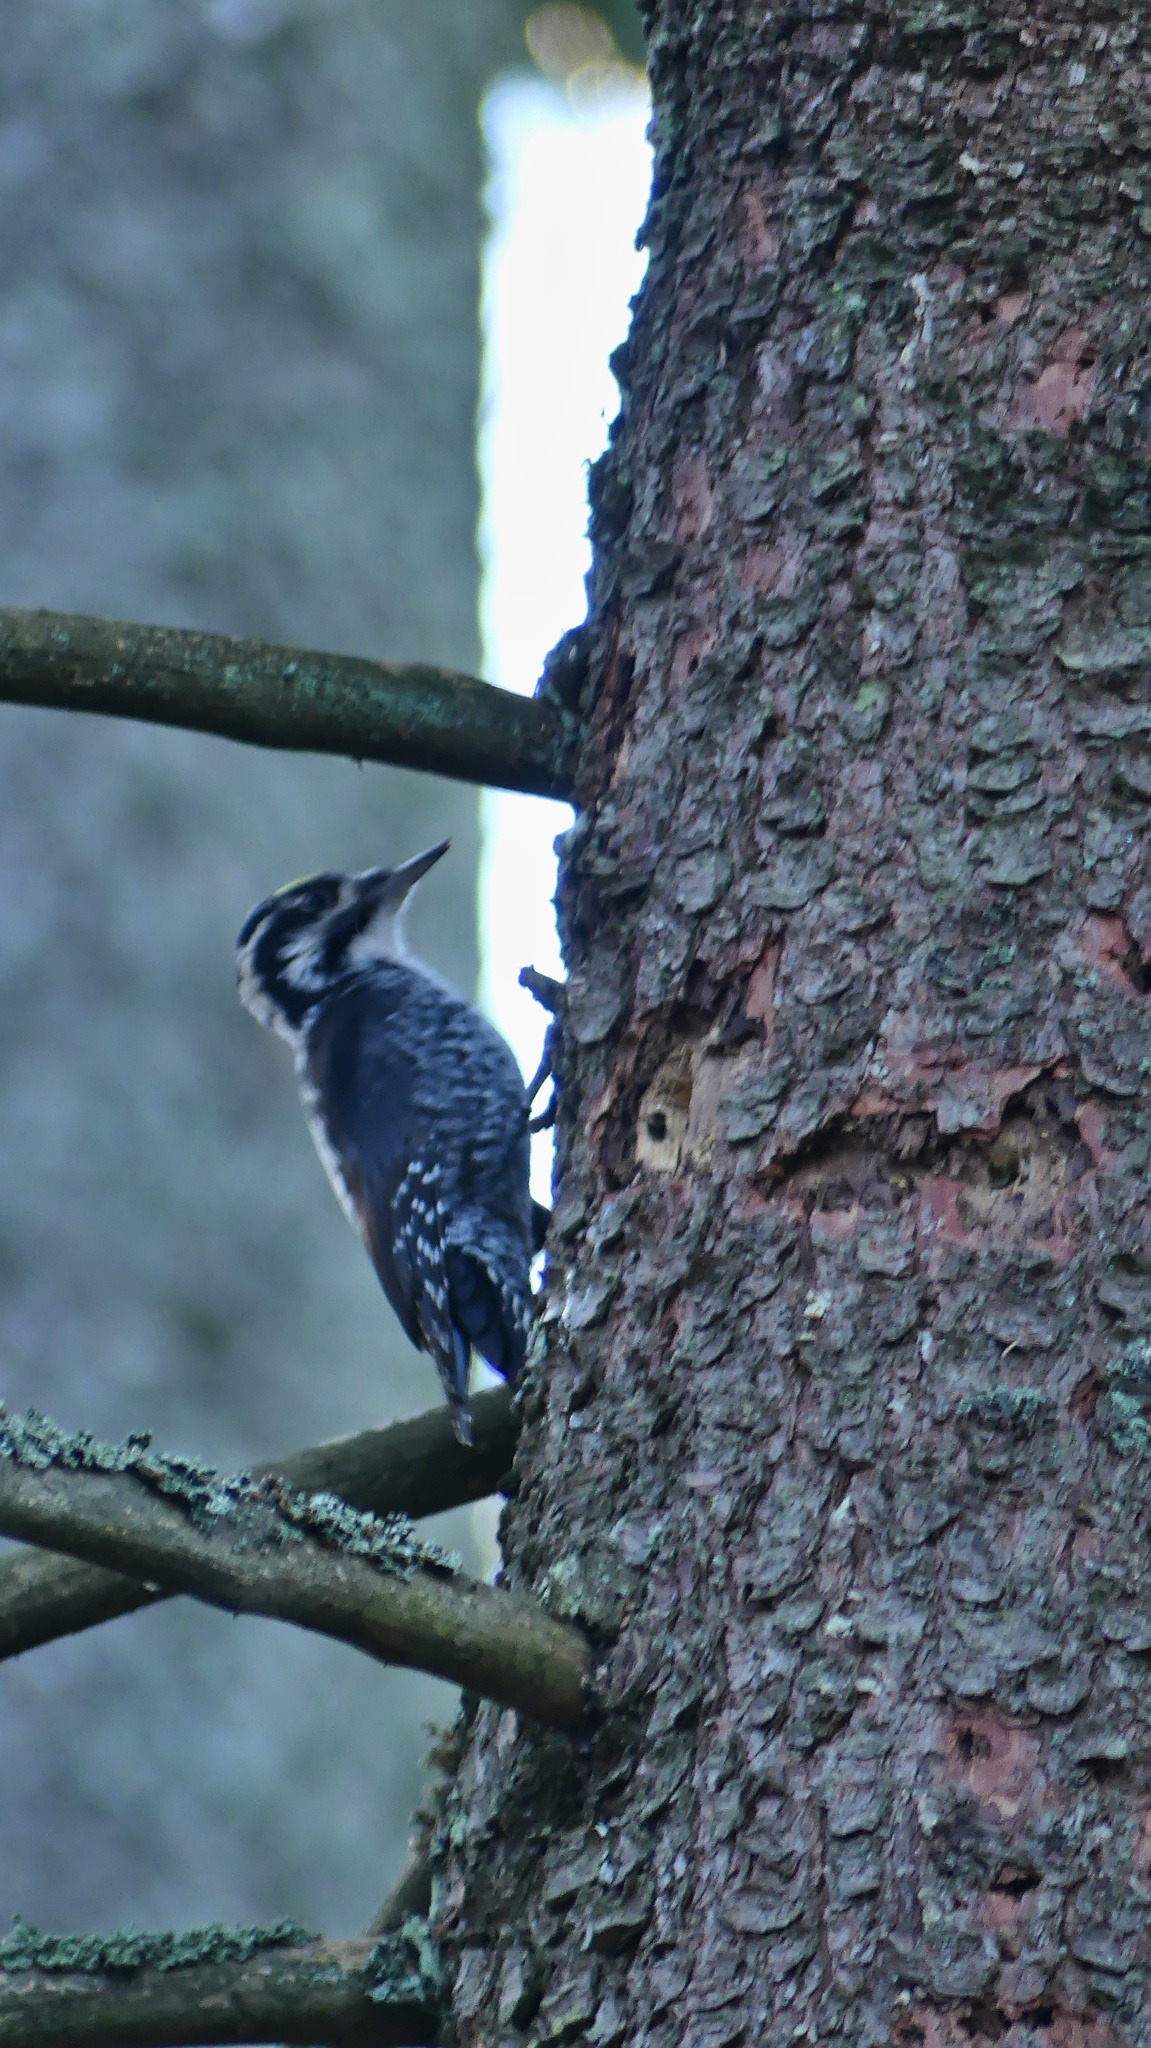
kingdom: Animalia
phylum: Chordata
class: Aves
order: Piciformes
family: Picidae
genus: Picoides
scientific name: Picoides tridactylus
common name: Eurasian three-toed woodpecker
